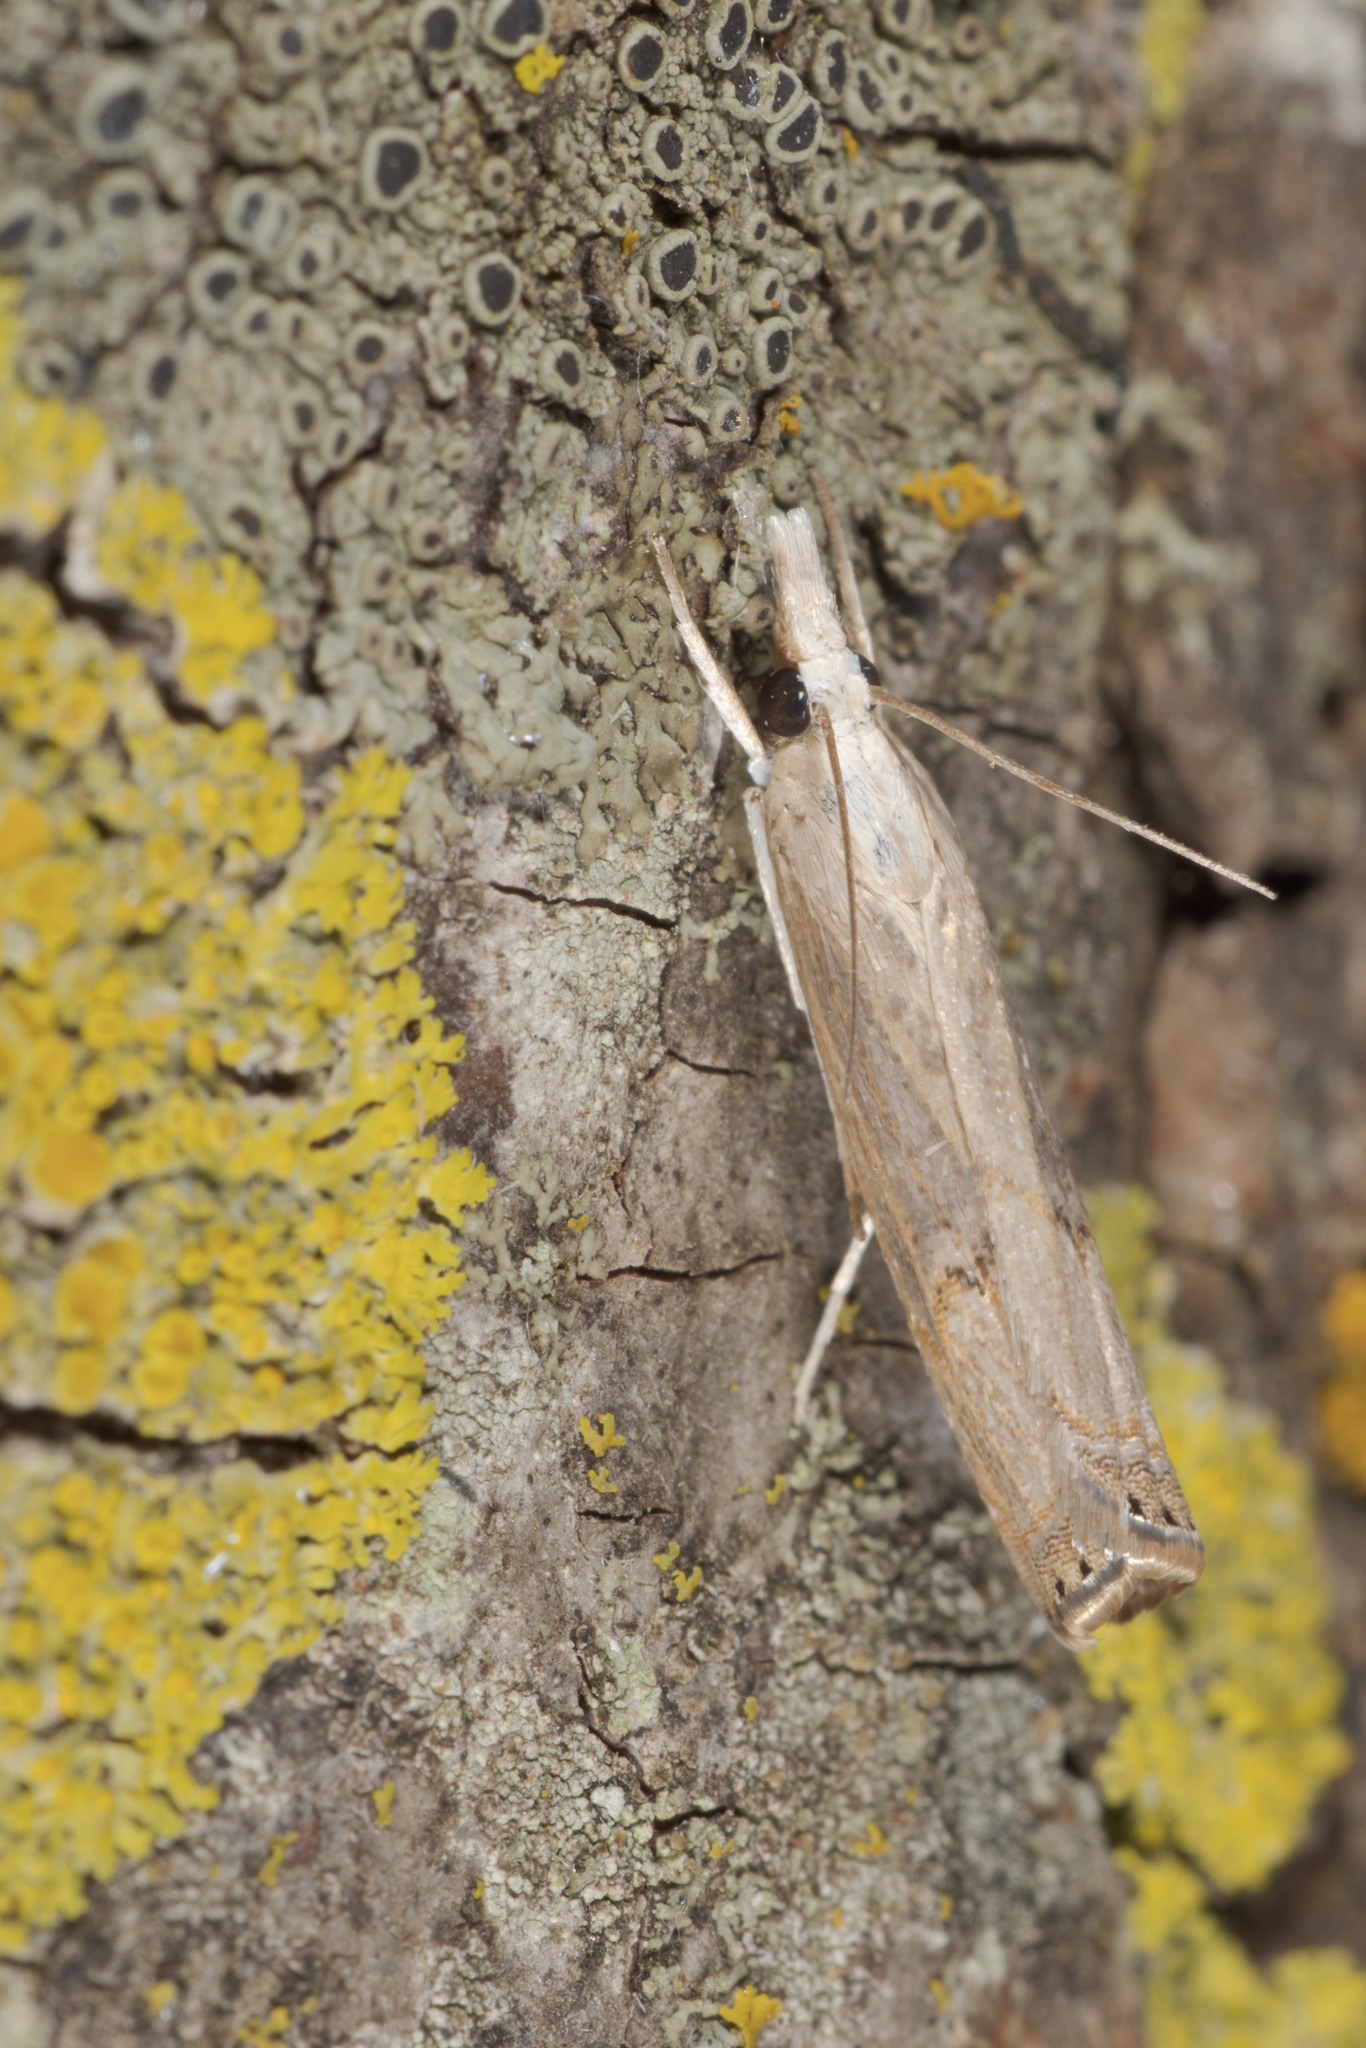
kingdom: Animalia
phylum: Arthropoda
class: Insecta
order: Lepidoptera
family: Crambidae
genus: Parapediasia
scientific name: Parapediasia teterellus
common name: Bluegrass webworm moth
